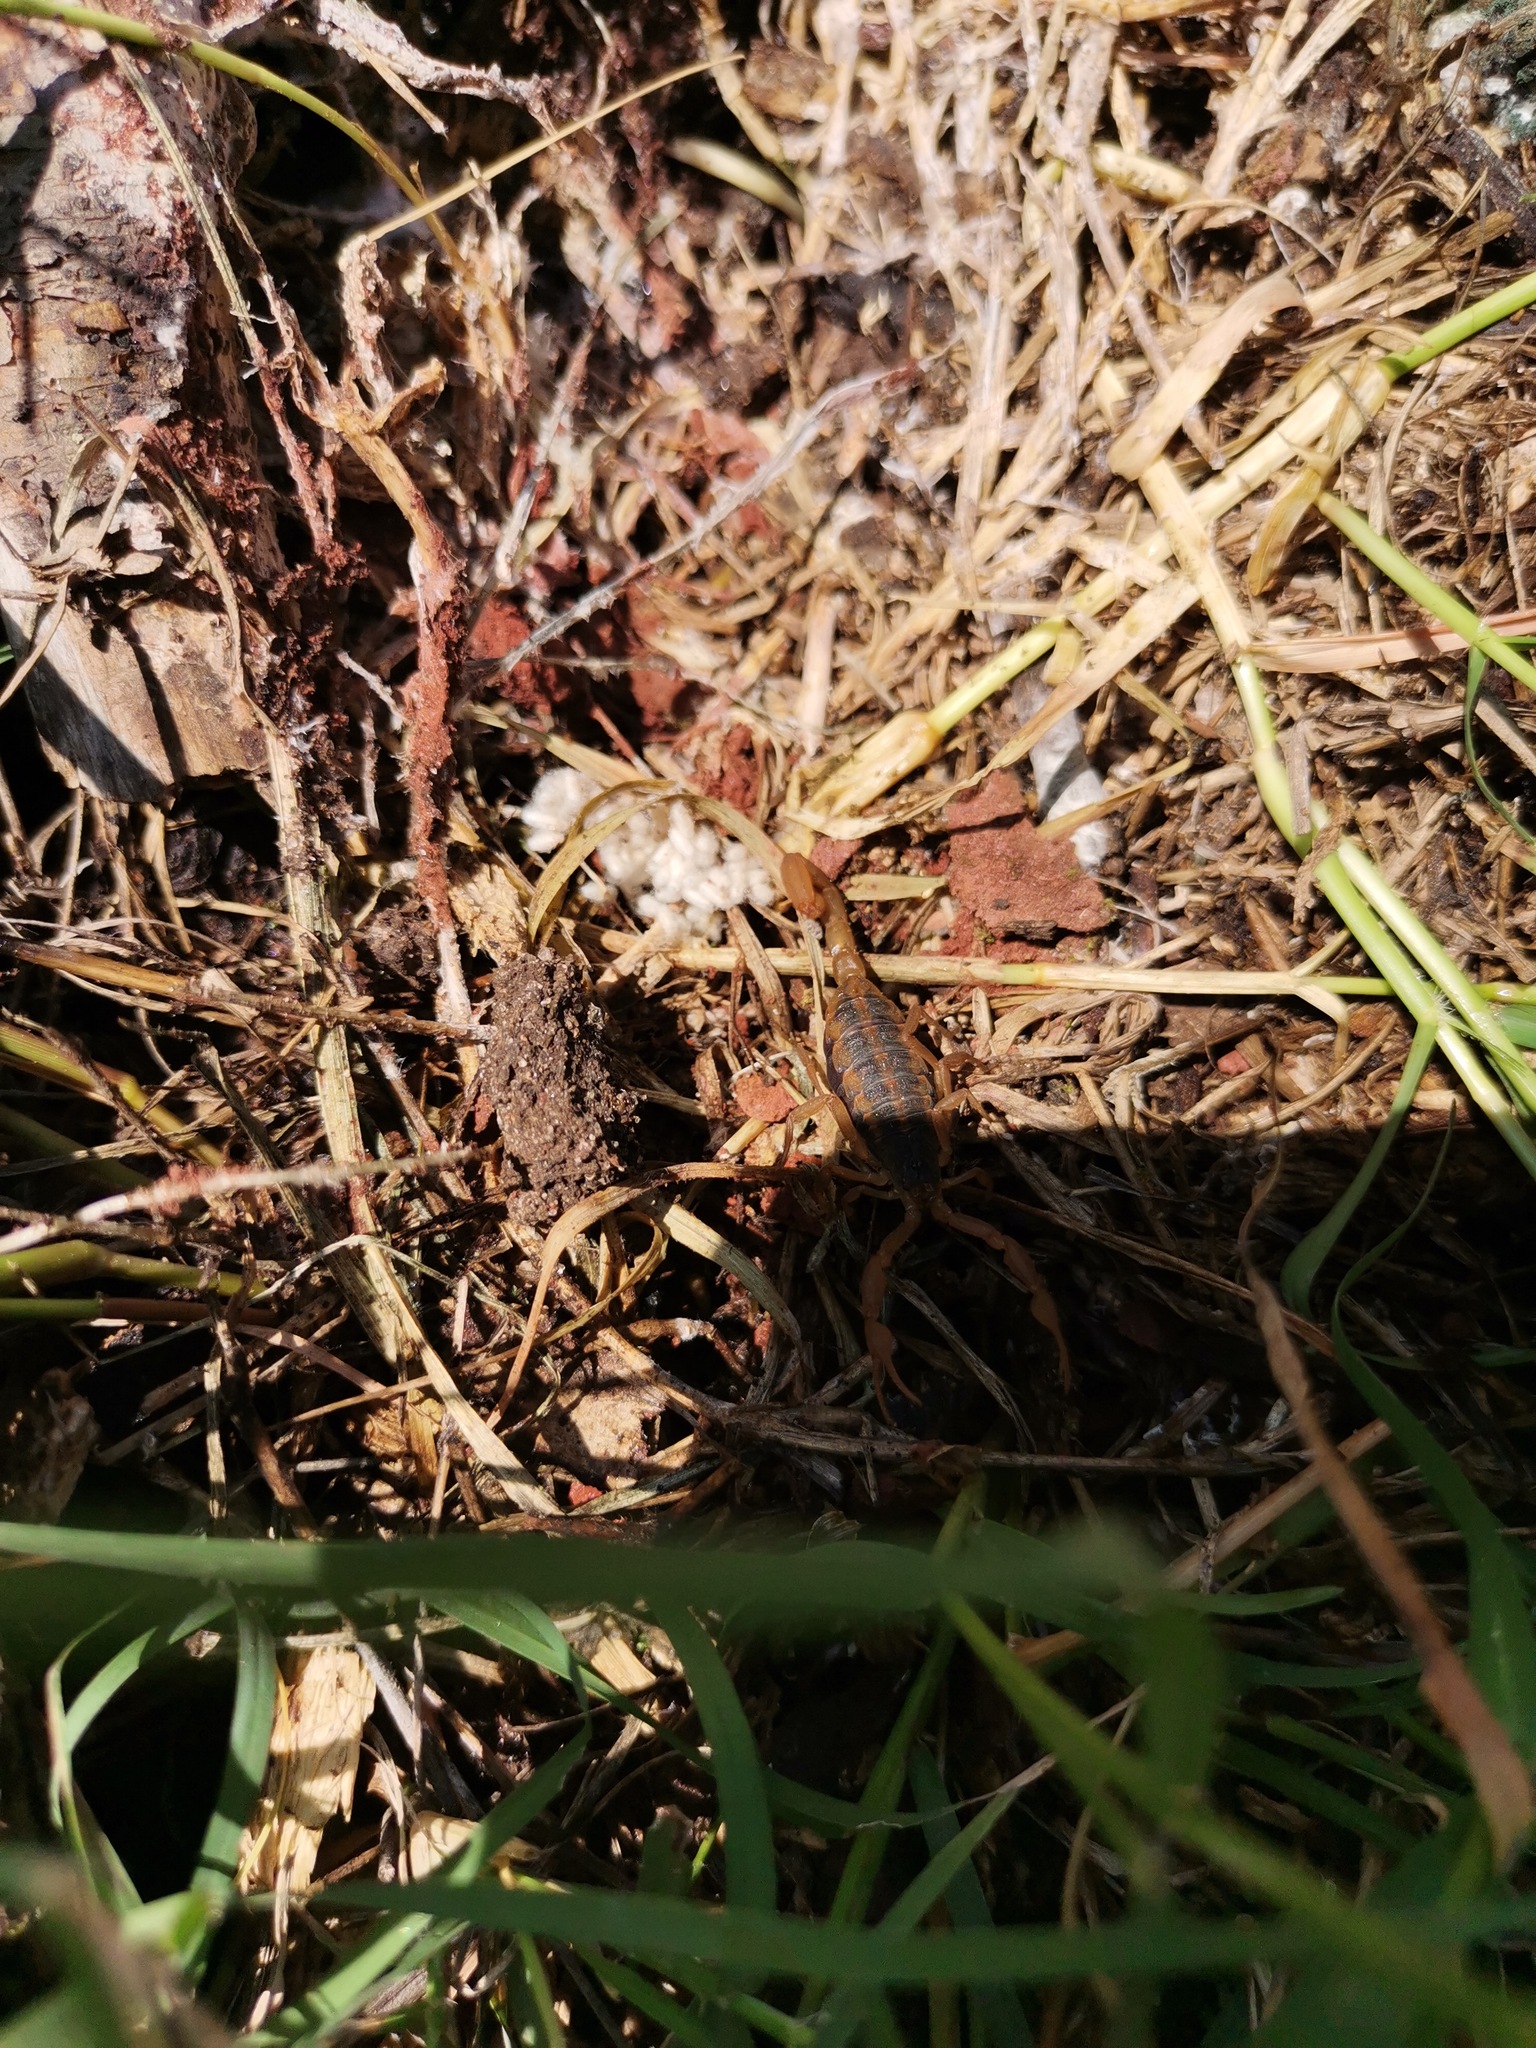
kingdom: Animalia
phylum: Arthropoda
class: Arachnida
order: Scorpiones
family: Buthidae
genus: Centruroides
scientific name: Centruroides ornatus
